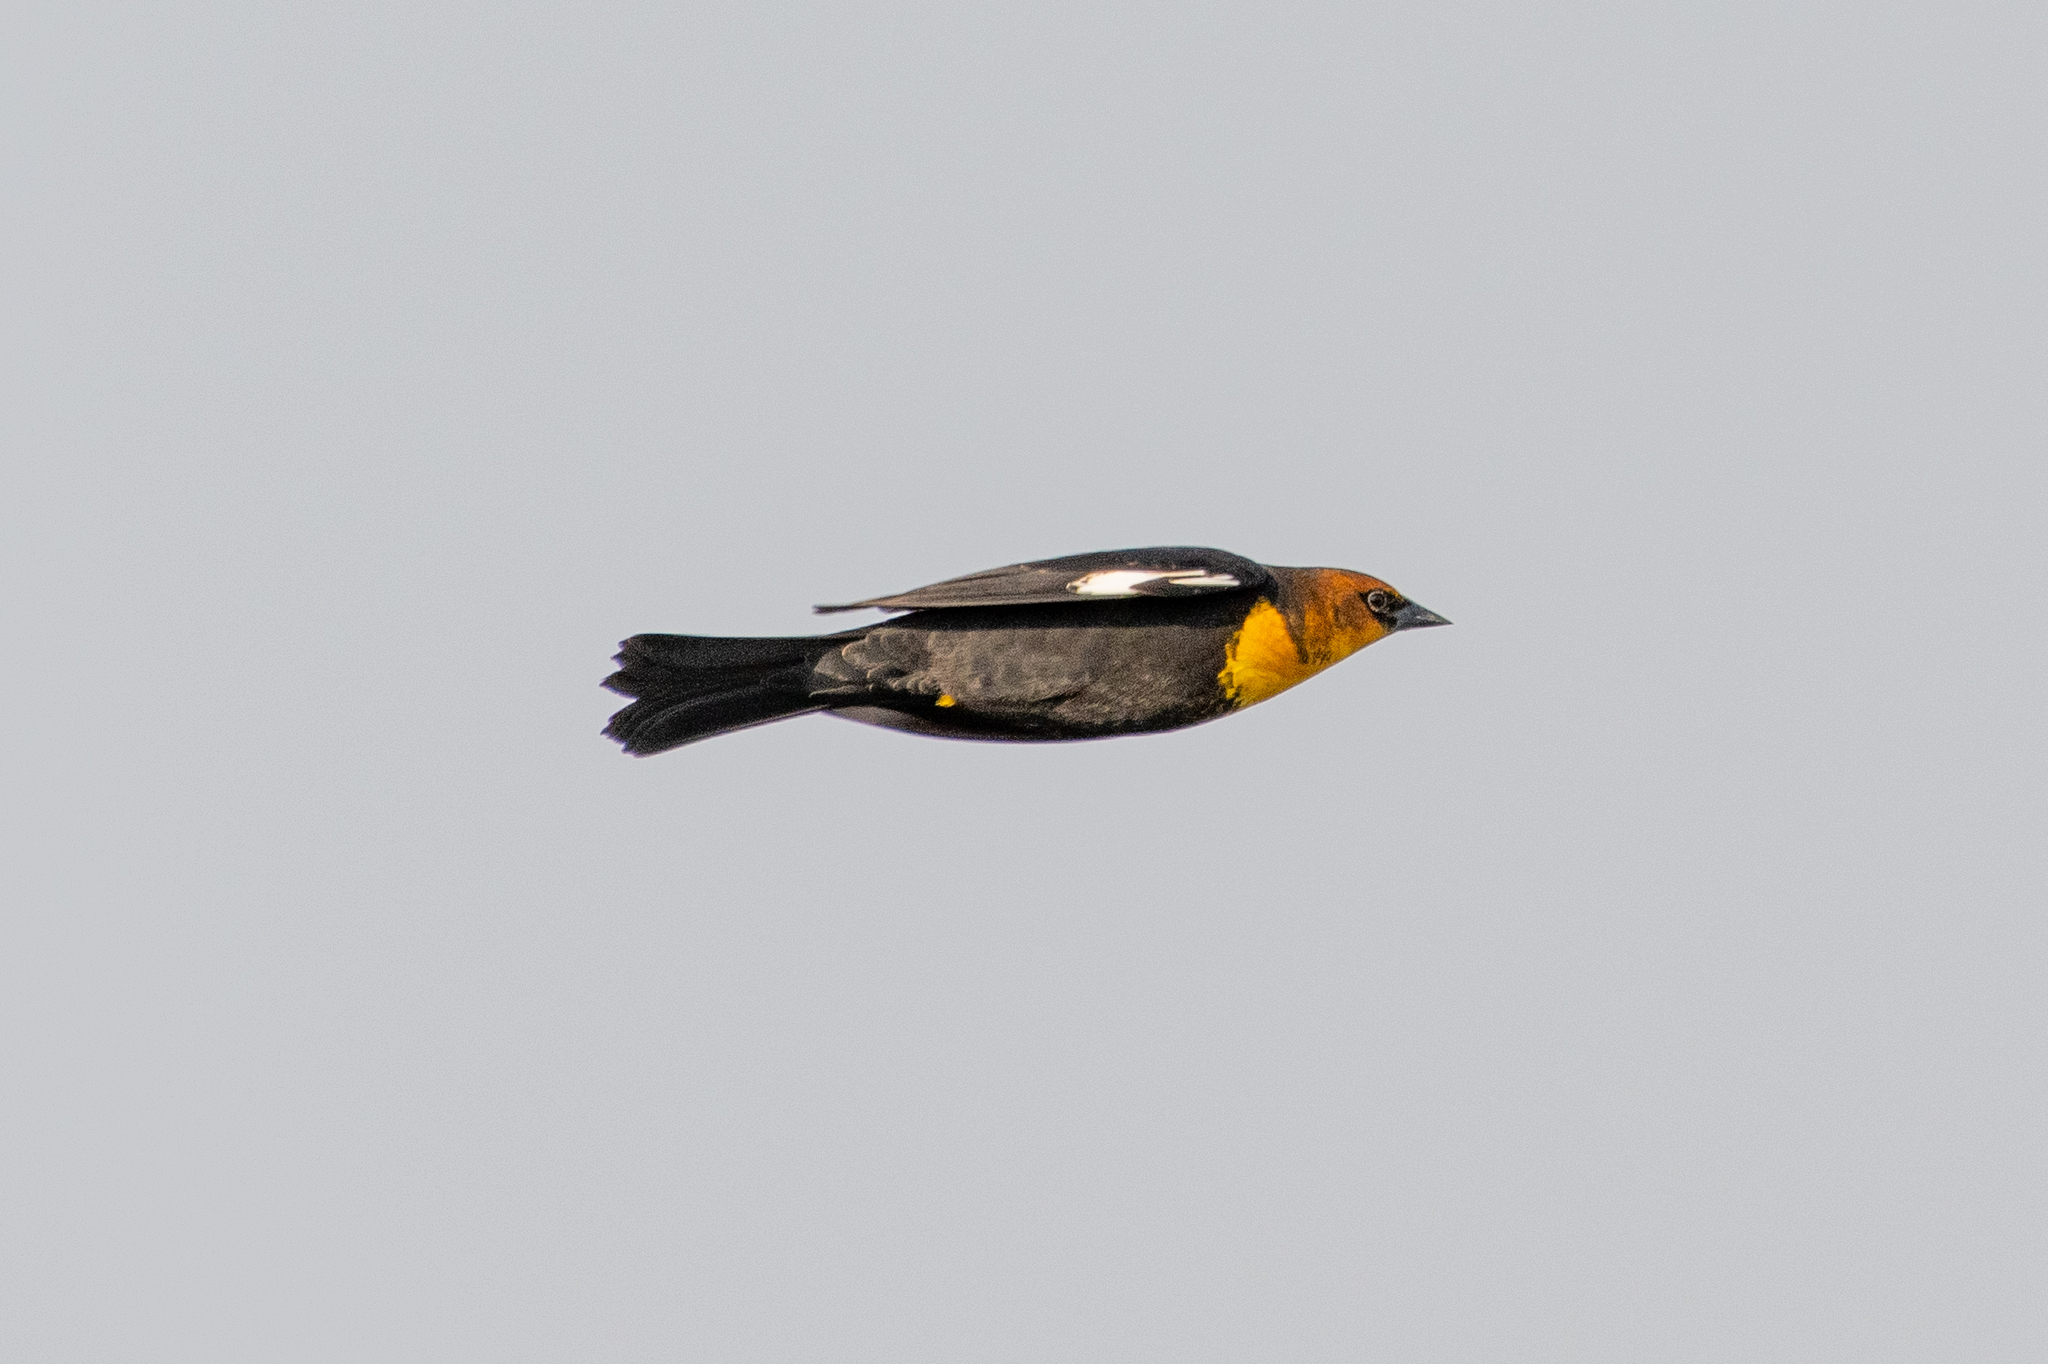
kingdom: Animalia
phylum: Chordata
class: Aves
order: Passeriformes
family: Icteridae
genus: Xanthocephalus
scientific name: Xanthocephalus xanthocephalus
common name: Yellow-headed blackbird
